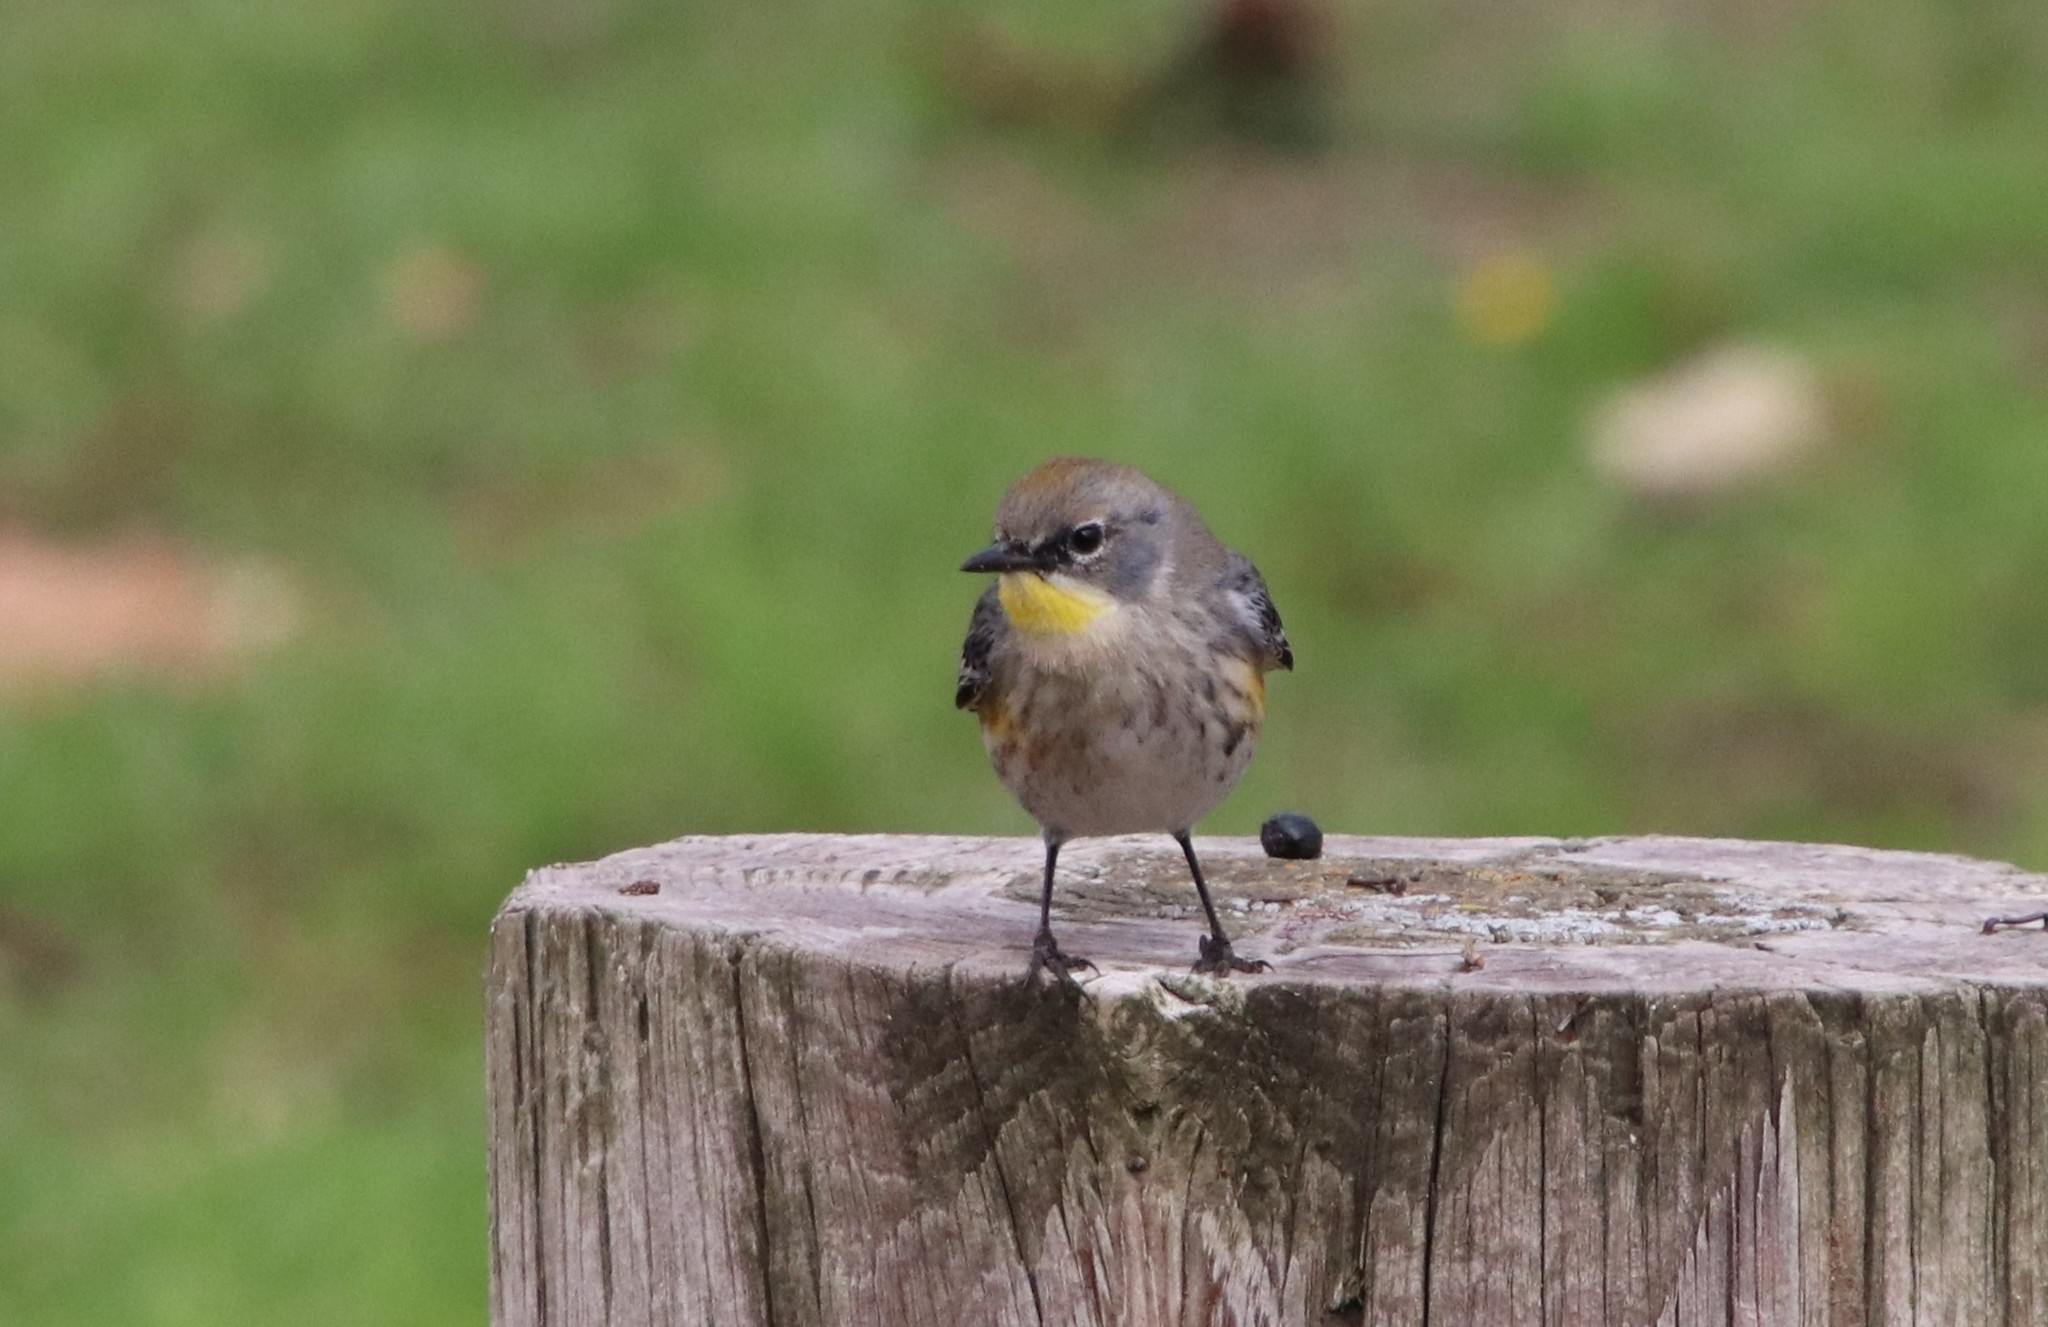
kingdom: Animalia
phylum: Chordata
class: Aves
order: Passeriformes
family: Parulidae
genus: Setophaga
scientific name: Setophaga auduboni
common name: Audubon's warbler
